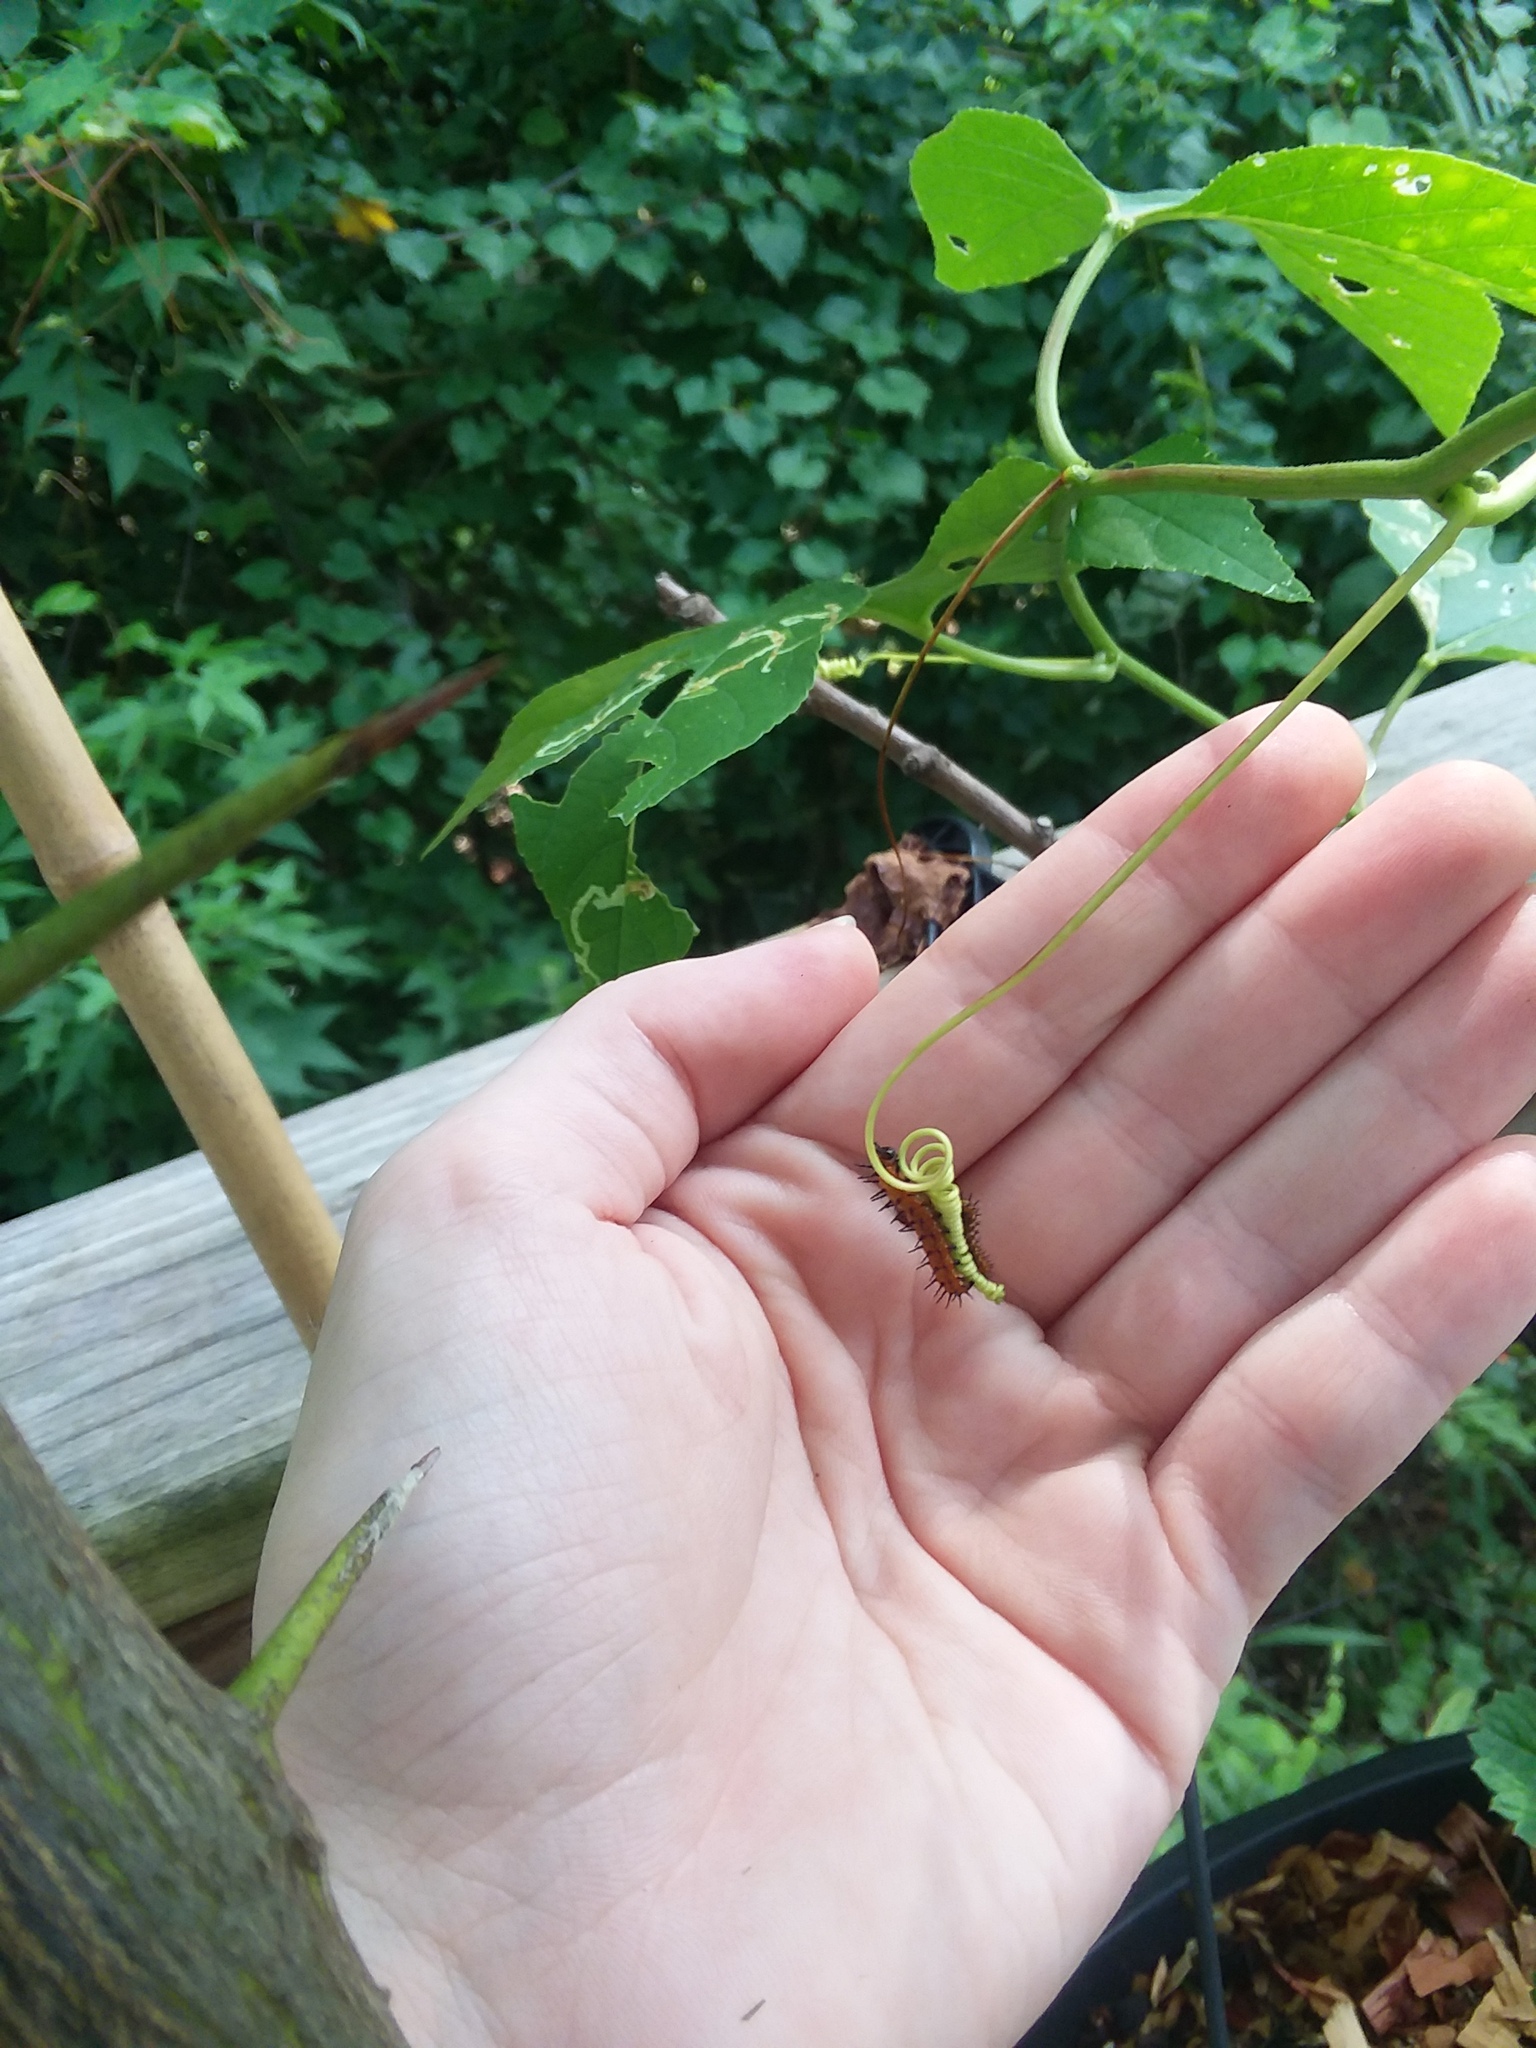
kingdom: Animalia
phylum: Arthropoda
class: Insecta
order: Lepidoptera
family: Nymphalidae
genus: Dione
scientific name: Dione vanillae
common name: Gulf fritillary
